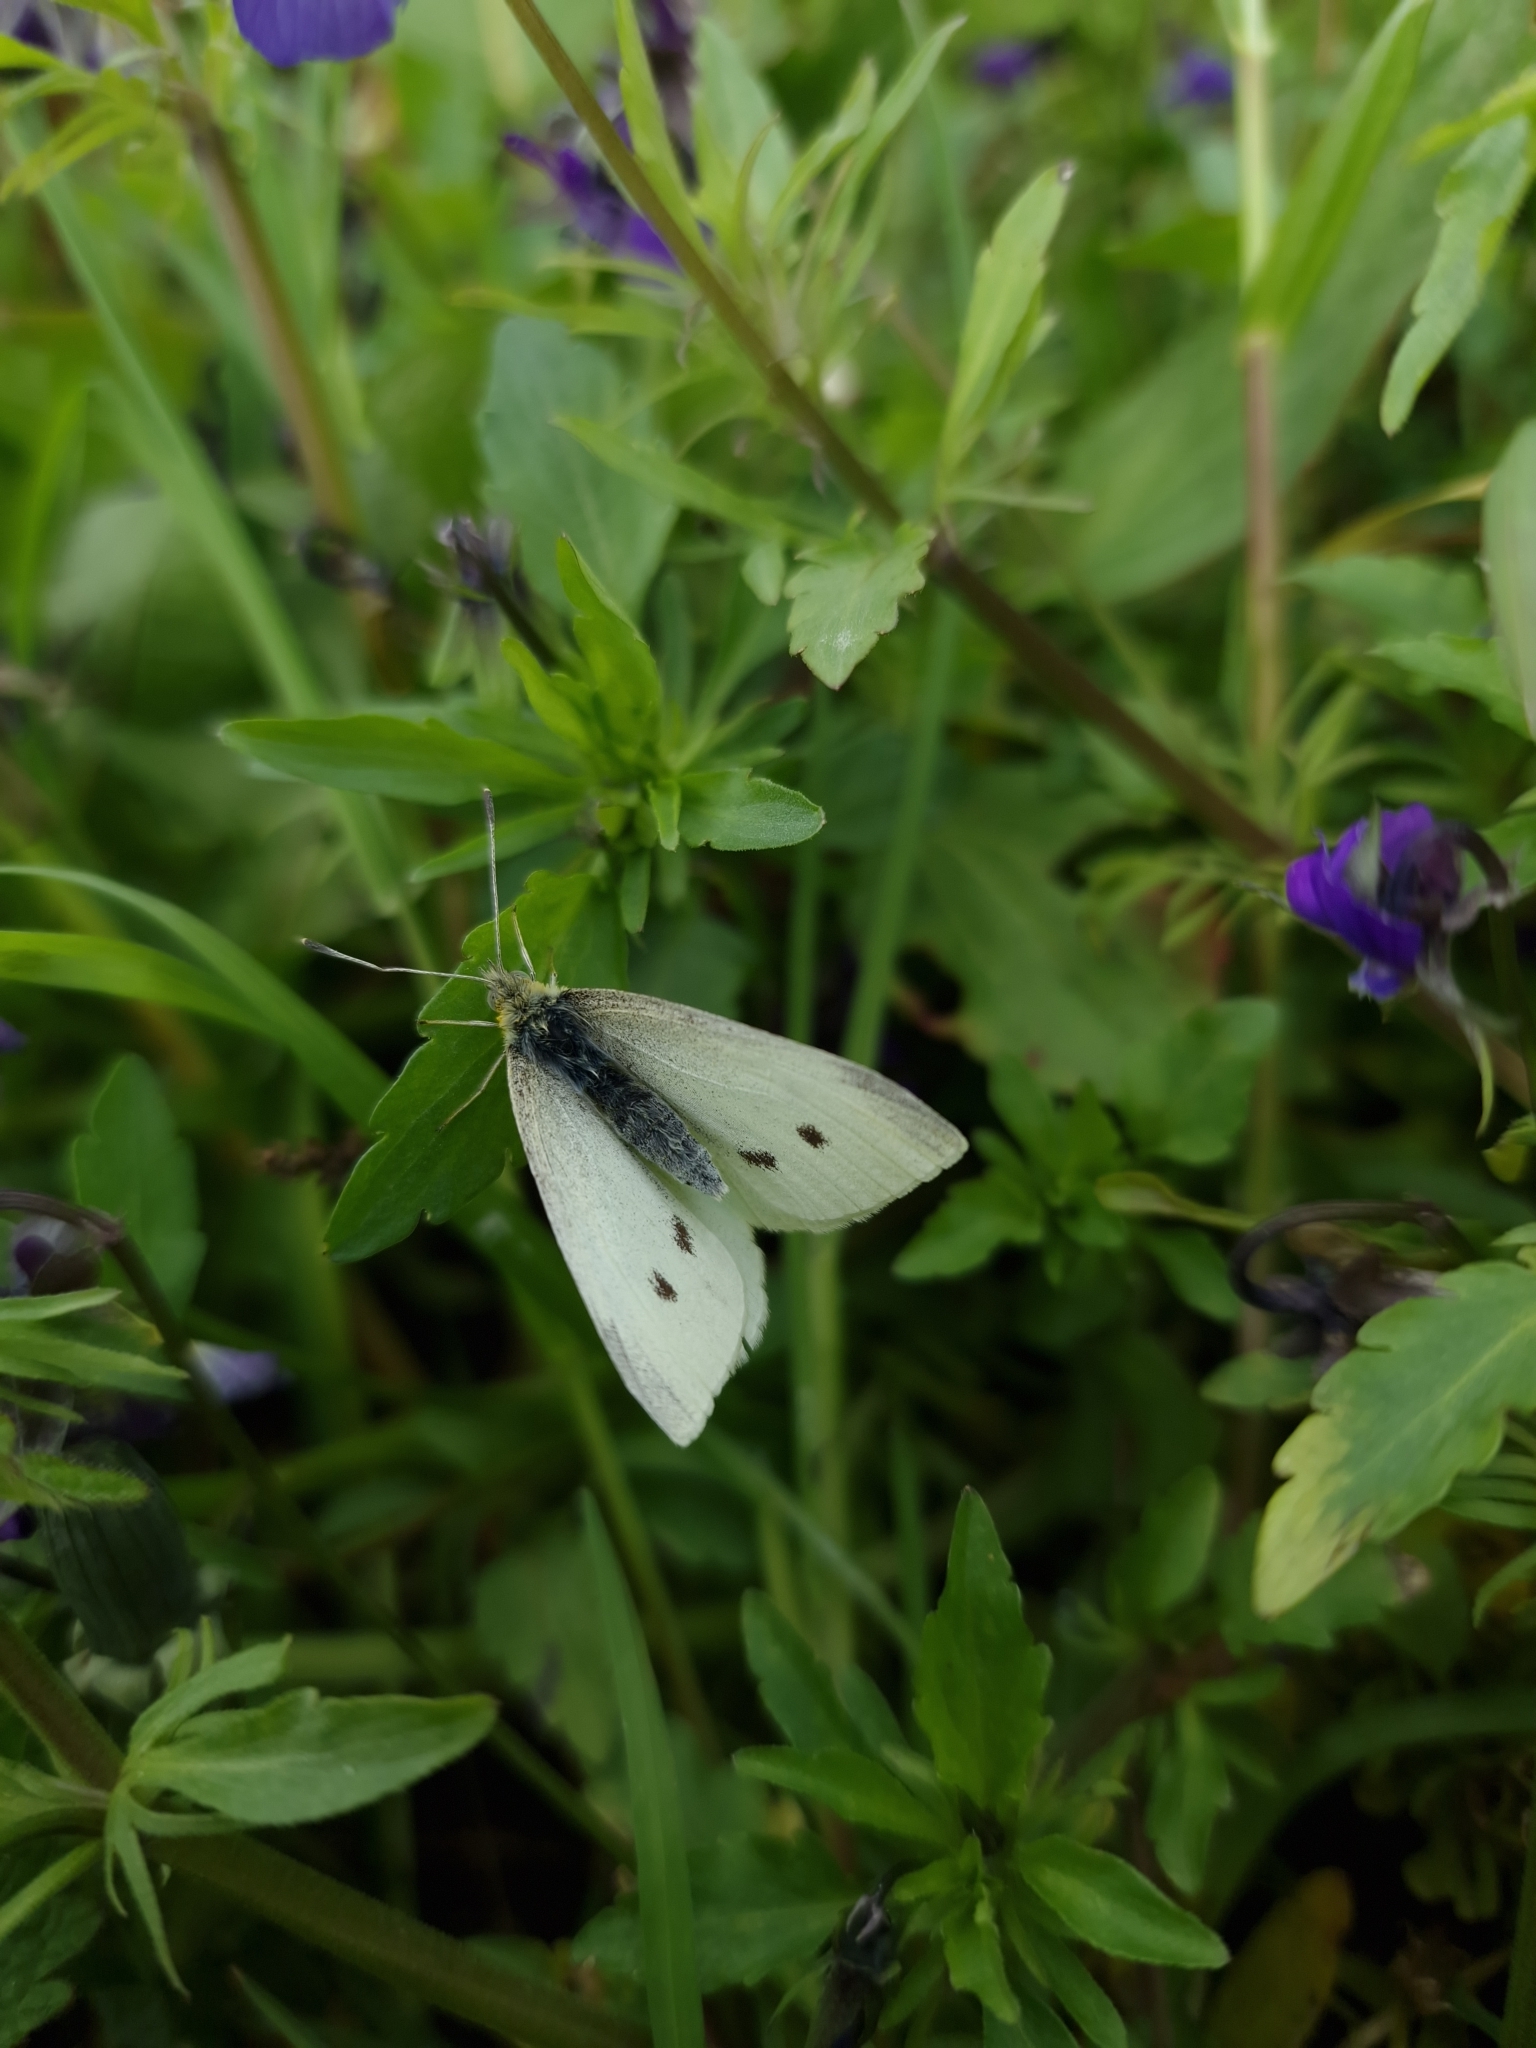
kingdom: Animalia
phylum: Arthropoda
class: Insecta
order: Lepidoptera
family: Pieridae
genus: Pieris
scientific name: Pieris rapae
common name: Small white
